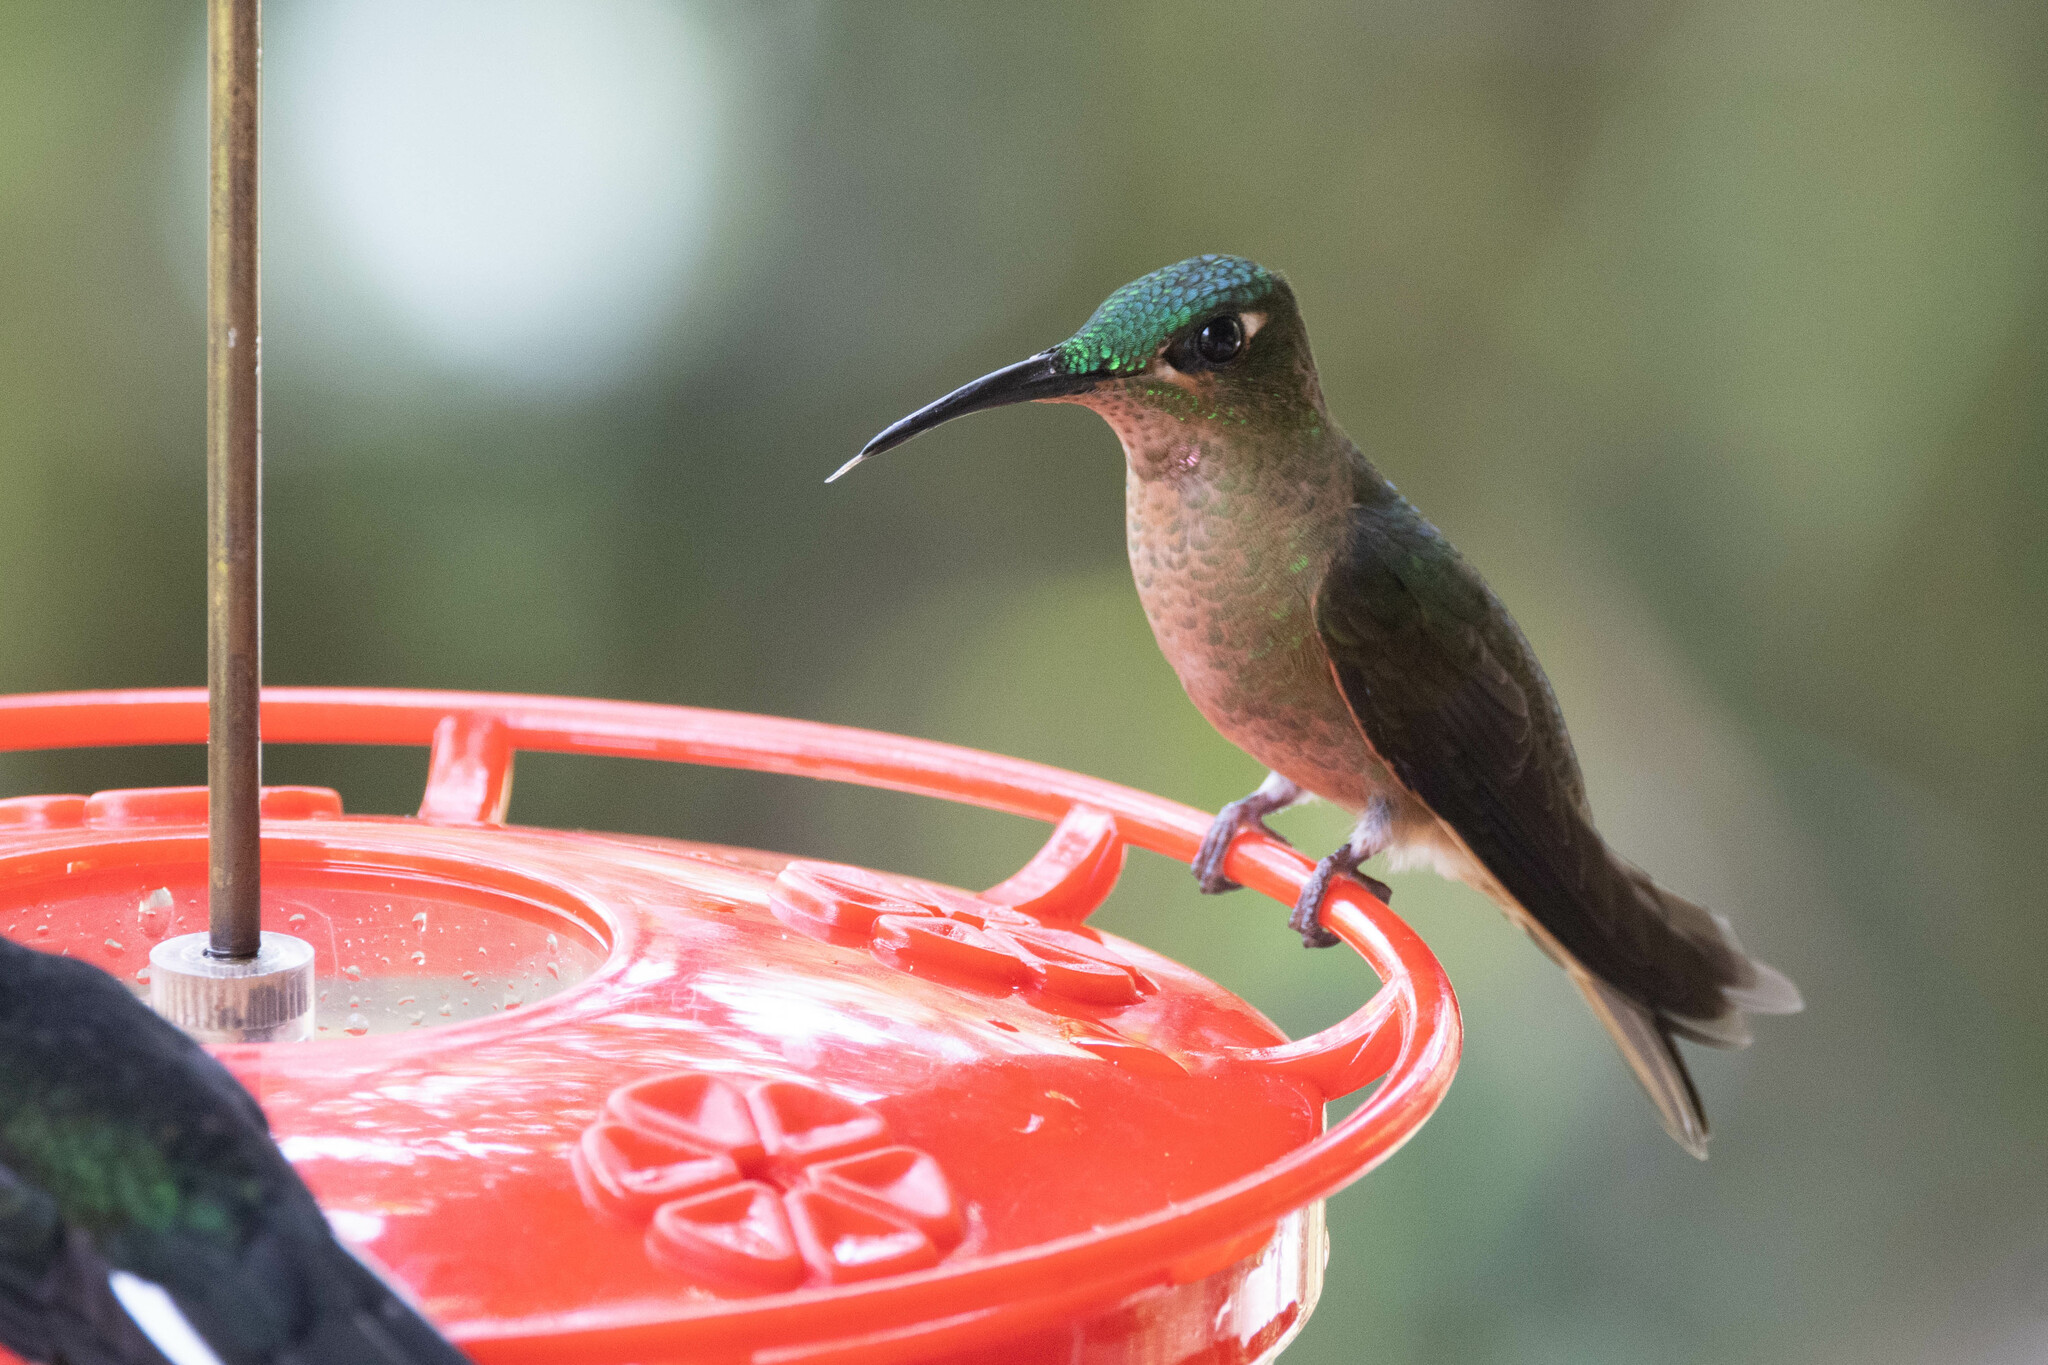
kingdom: Animalia
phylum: Chordata
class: Aves
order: Apodiformes
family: Trochilidae
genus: Heliodoxa
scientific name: Heliodoxa rubinoides
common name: Fawn-breasted brilliant
